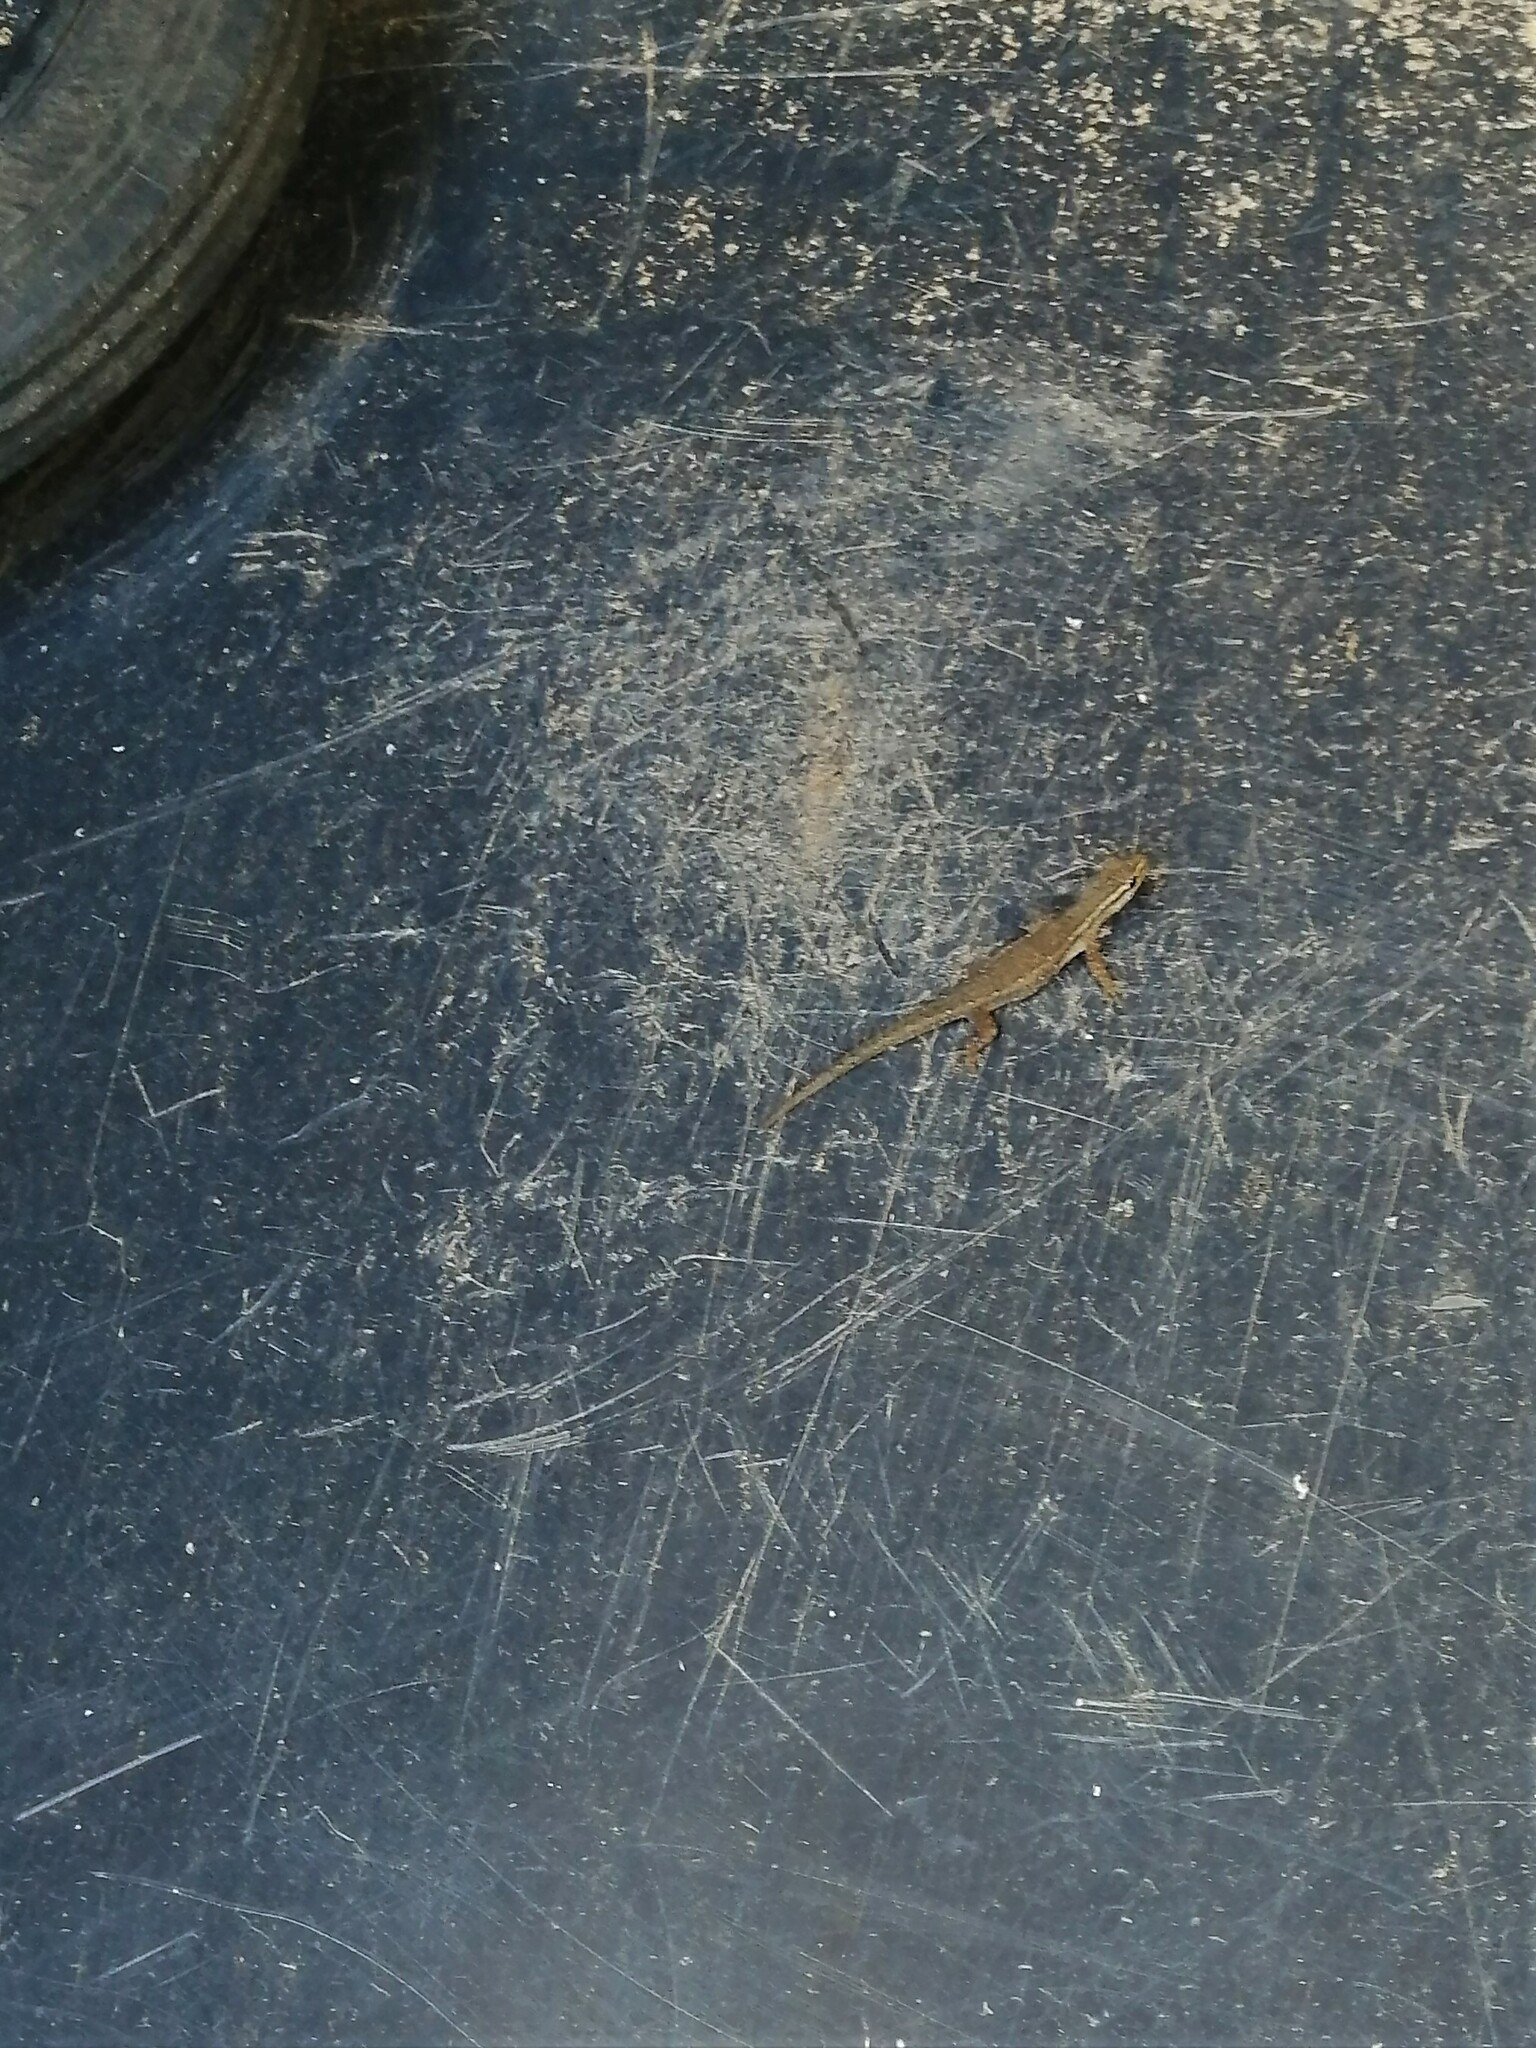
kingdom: Animalia
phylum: Chordata
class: Squamata
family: Gekkonidae
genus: Lygodactylus
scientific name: Lygodactylus capensis
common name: Cape dwarf gecko
